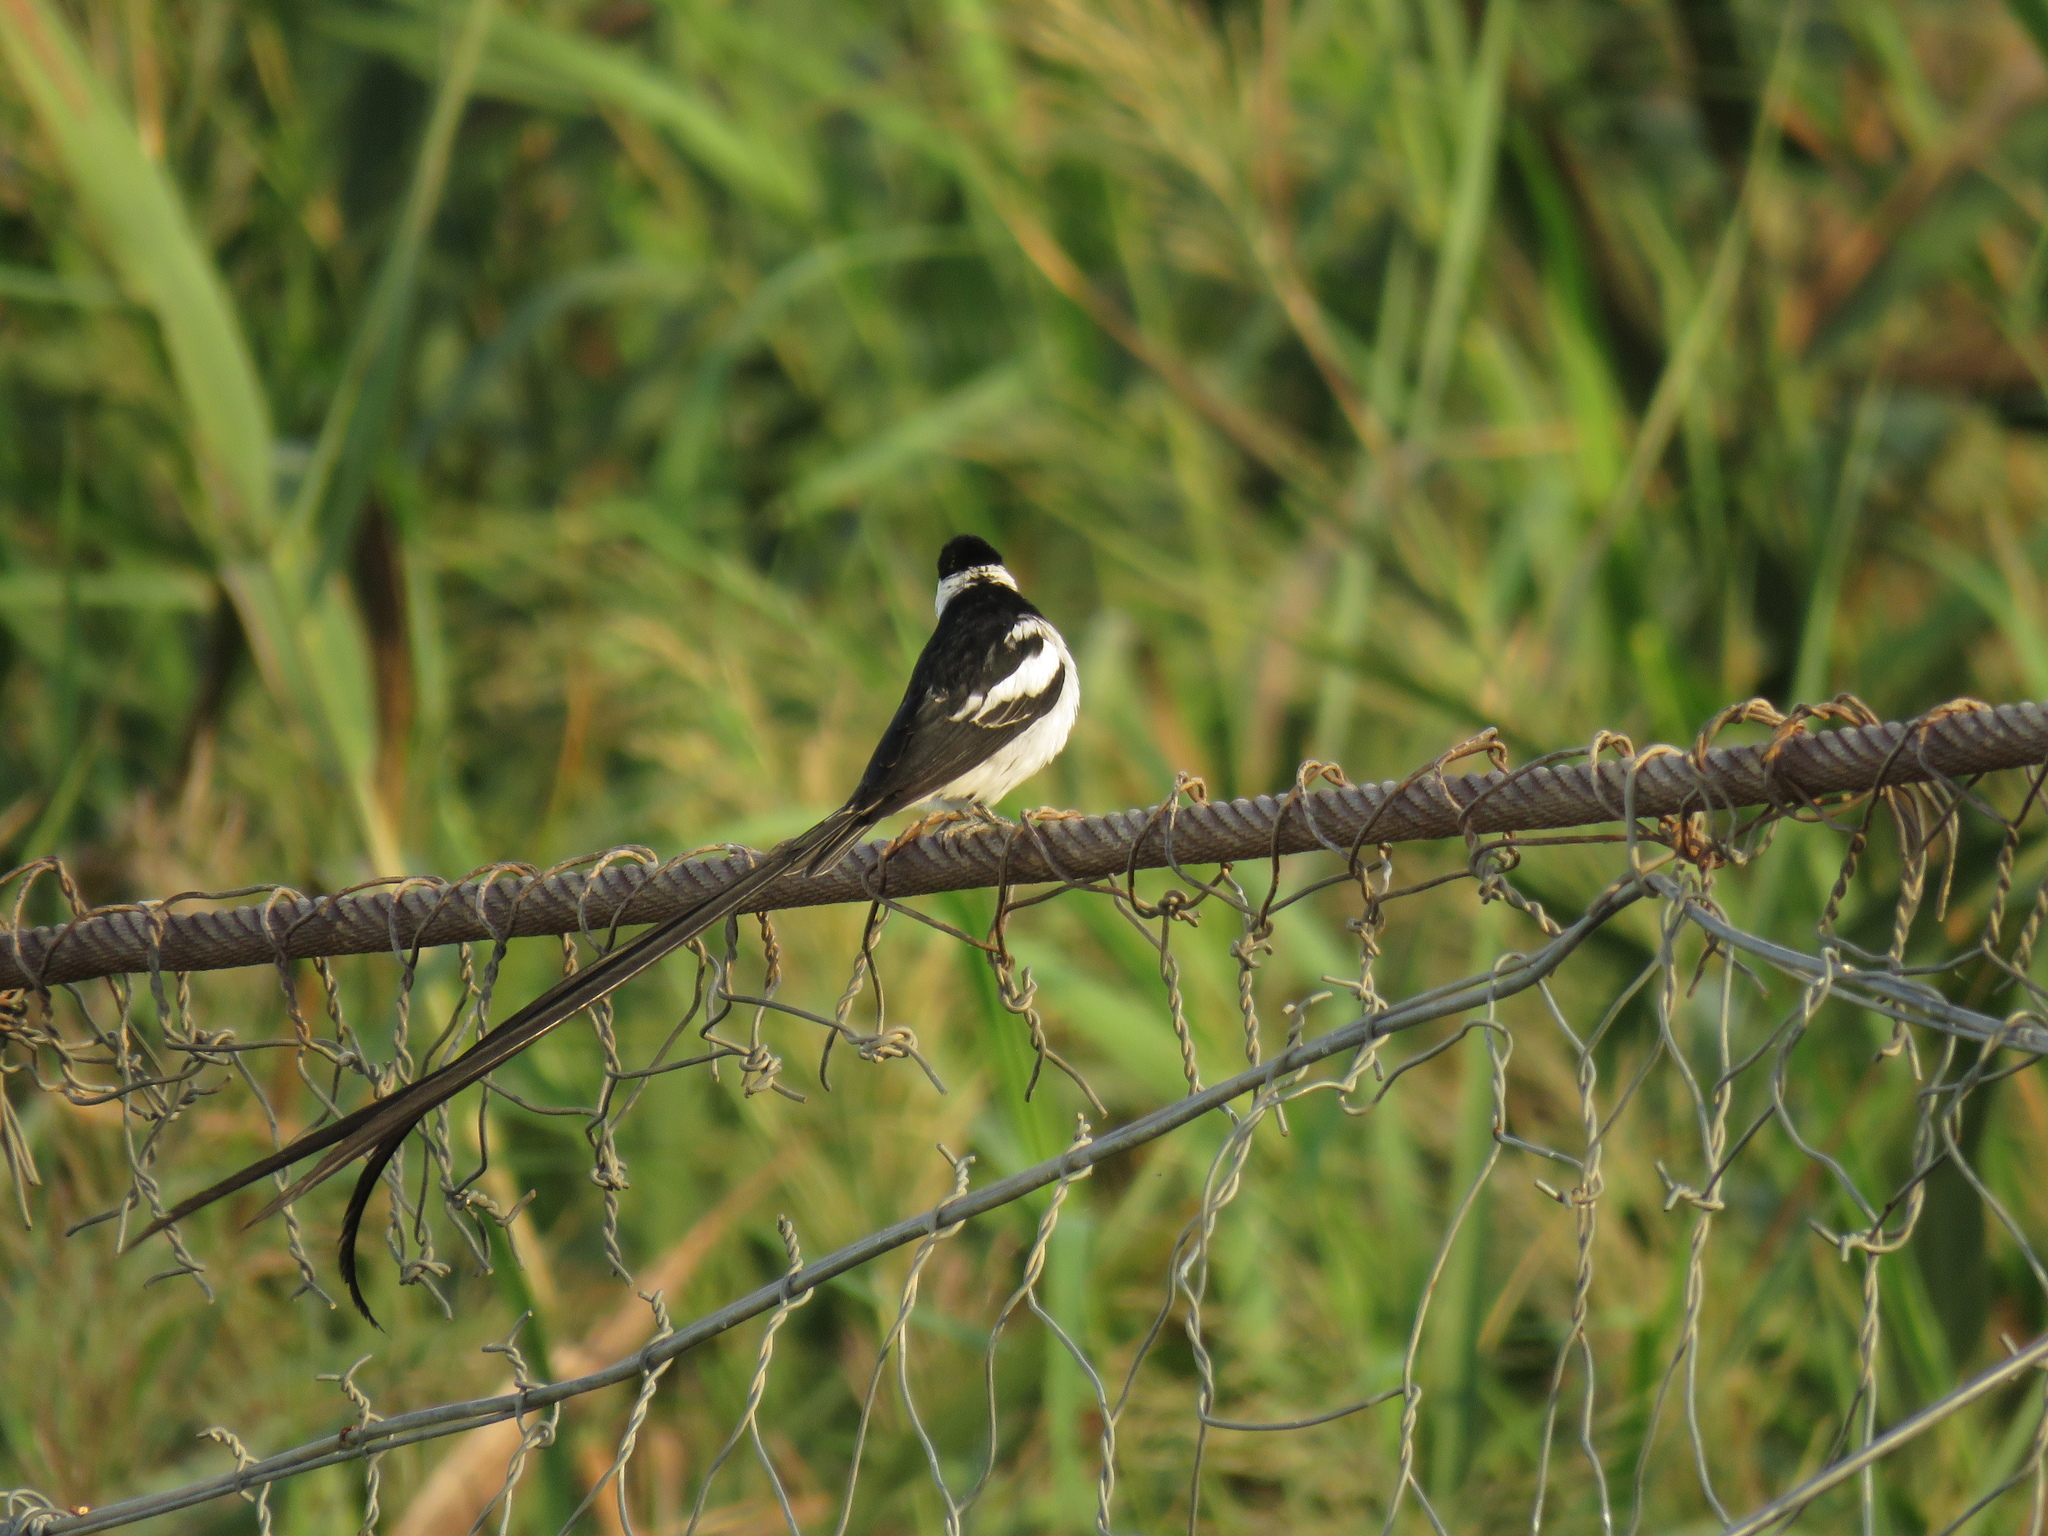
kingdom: Animalia
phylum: Chordata
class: Aves
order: Passeriformes
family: Viduidae
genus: Vidua
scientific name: Vidua macroura
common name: Pin-tailed whydah
